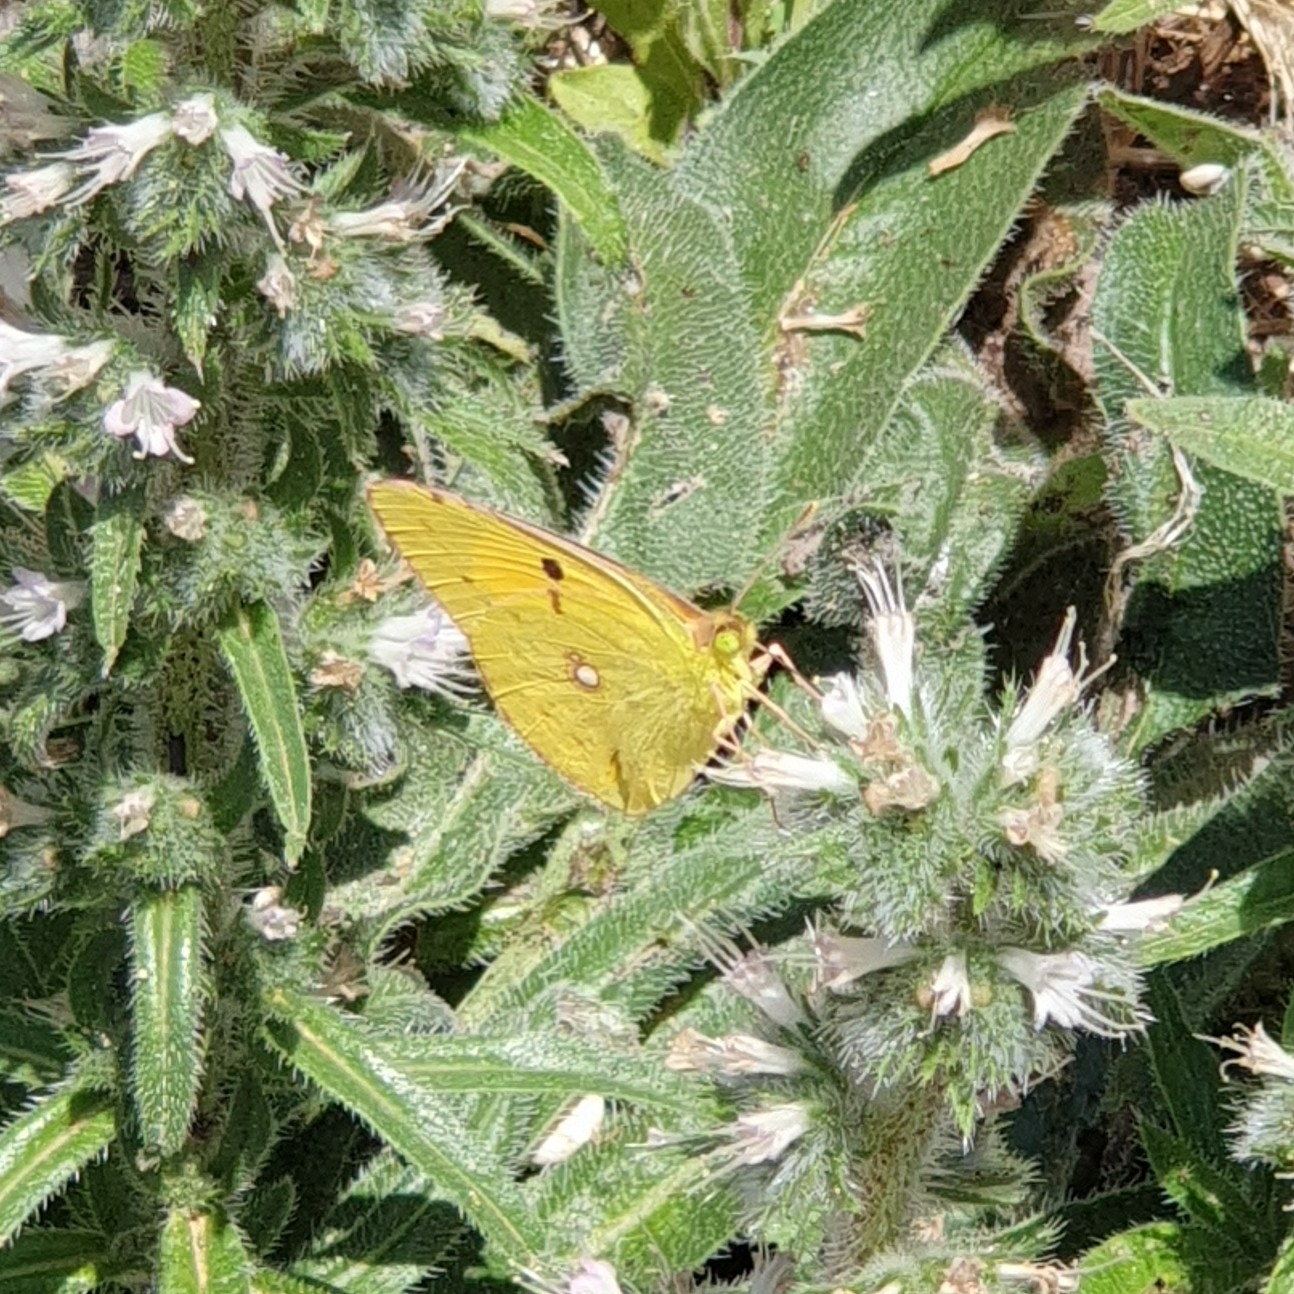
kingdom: Animalia
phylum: Arthropoda
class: Insecta
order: Lepidoptera
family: Pieridae
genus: Colias
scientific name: Colias croceus
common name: Clouded yellow
